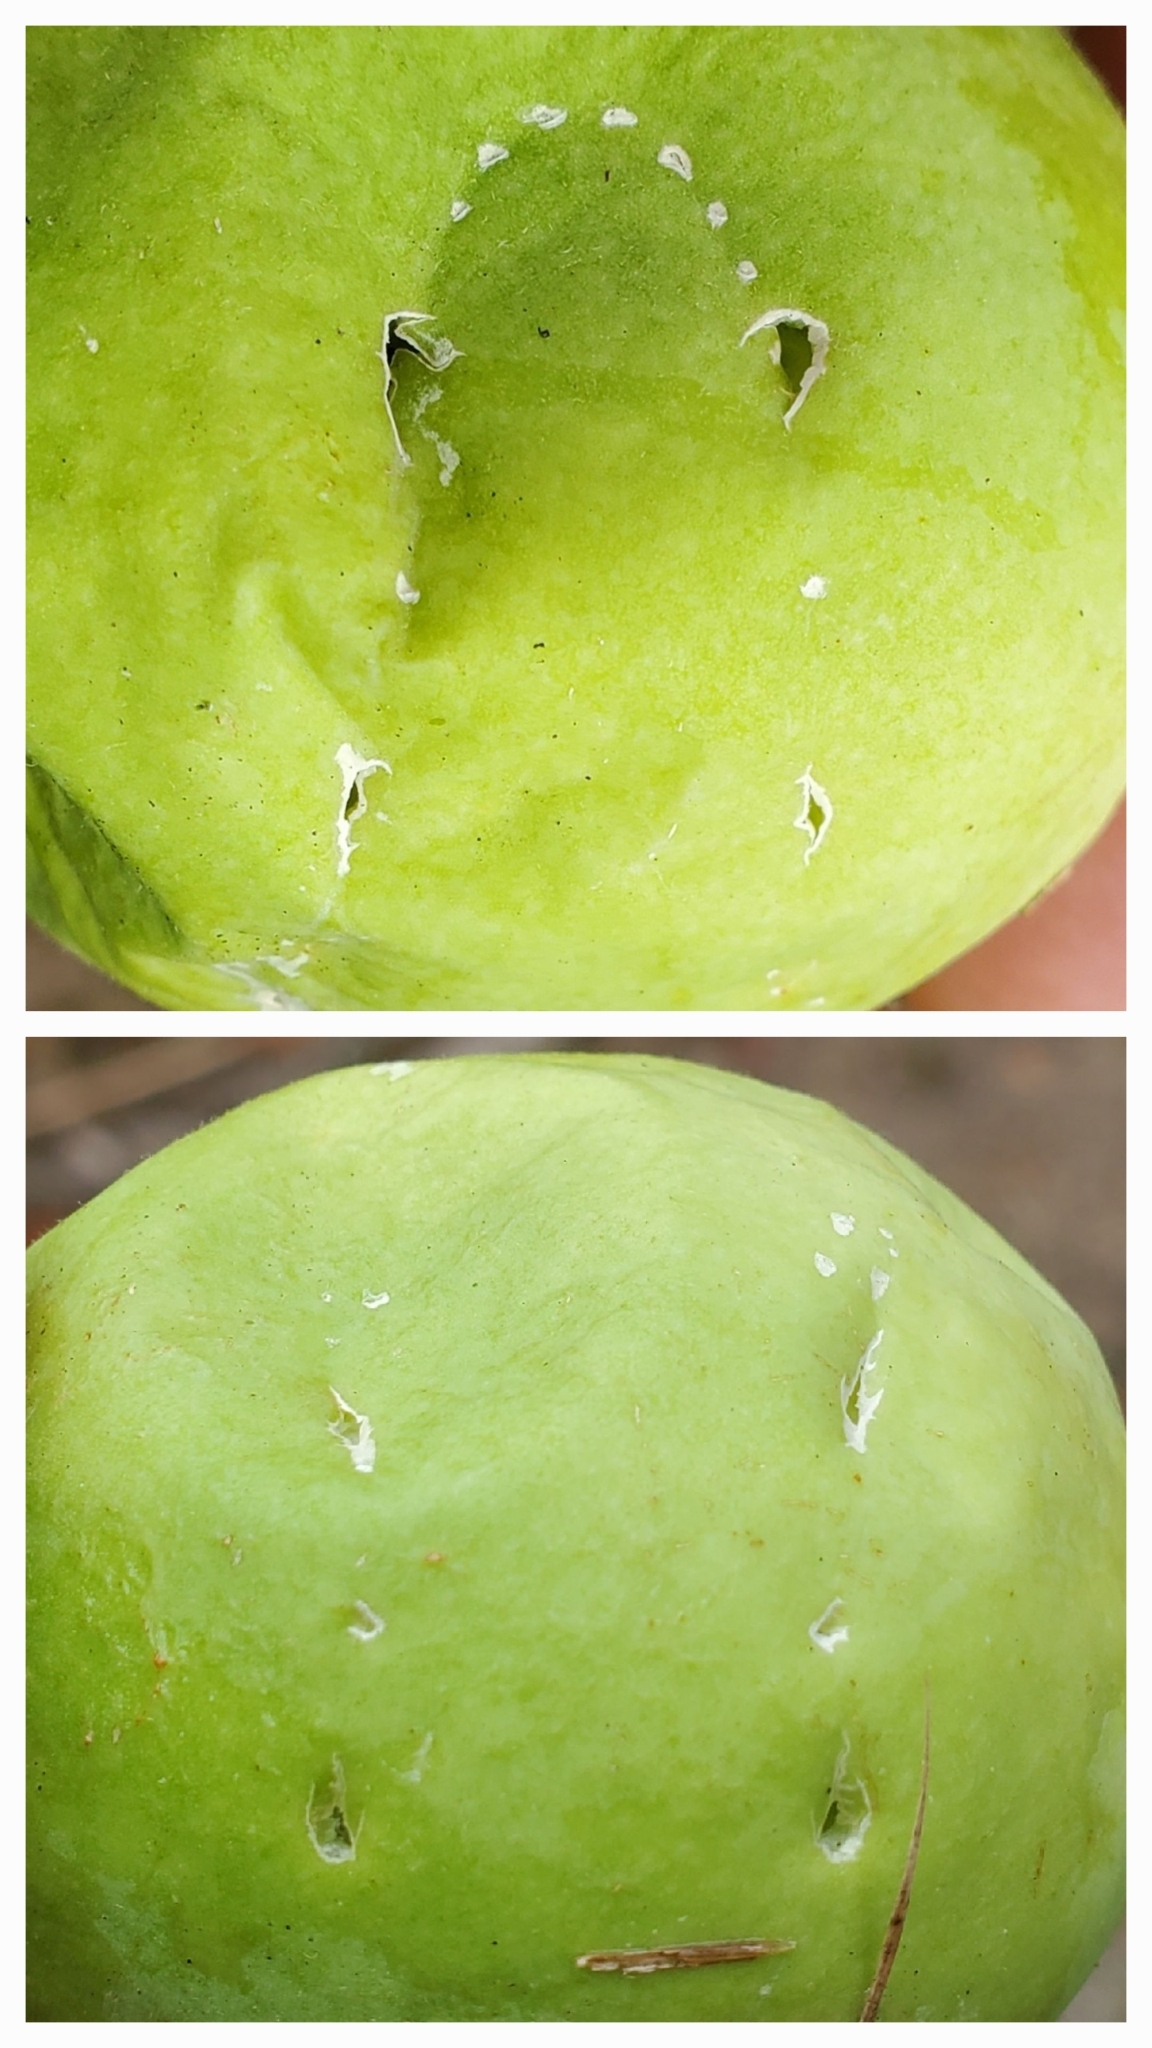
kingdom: Animalia
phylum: Chordata
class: Mammalia
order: Didelphimorphia
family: Didelphidae
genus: Didelphis
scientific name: Didelphis virginiana
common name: Virginia opossum
